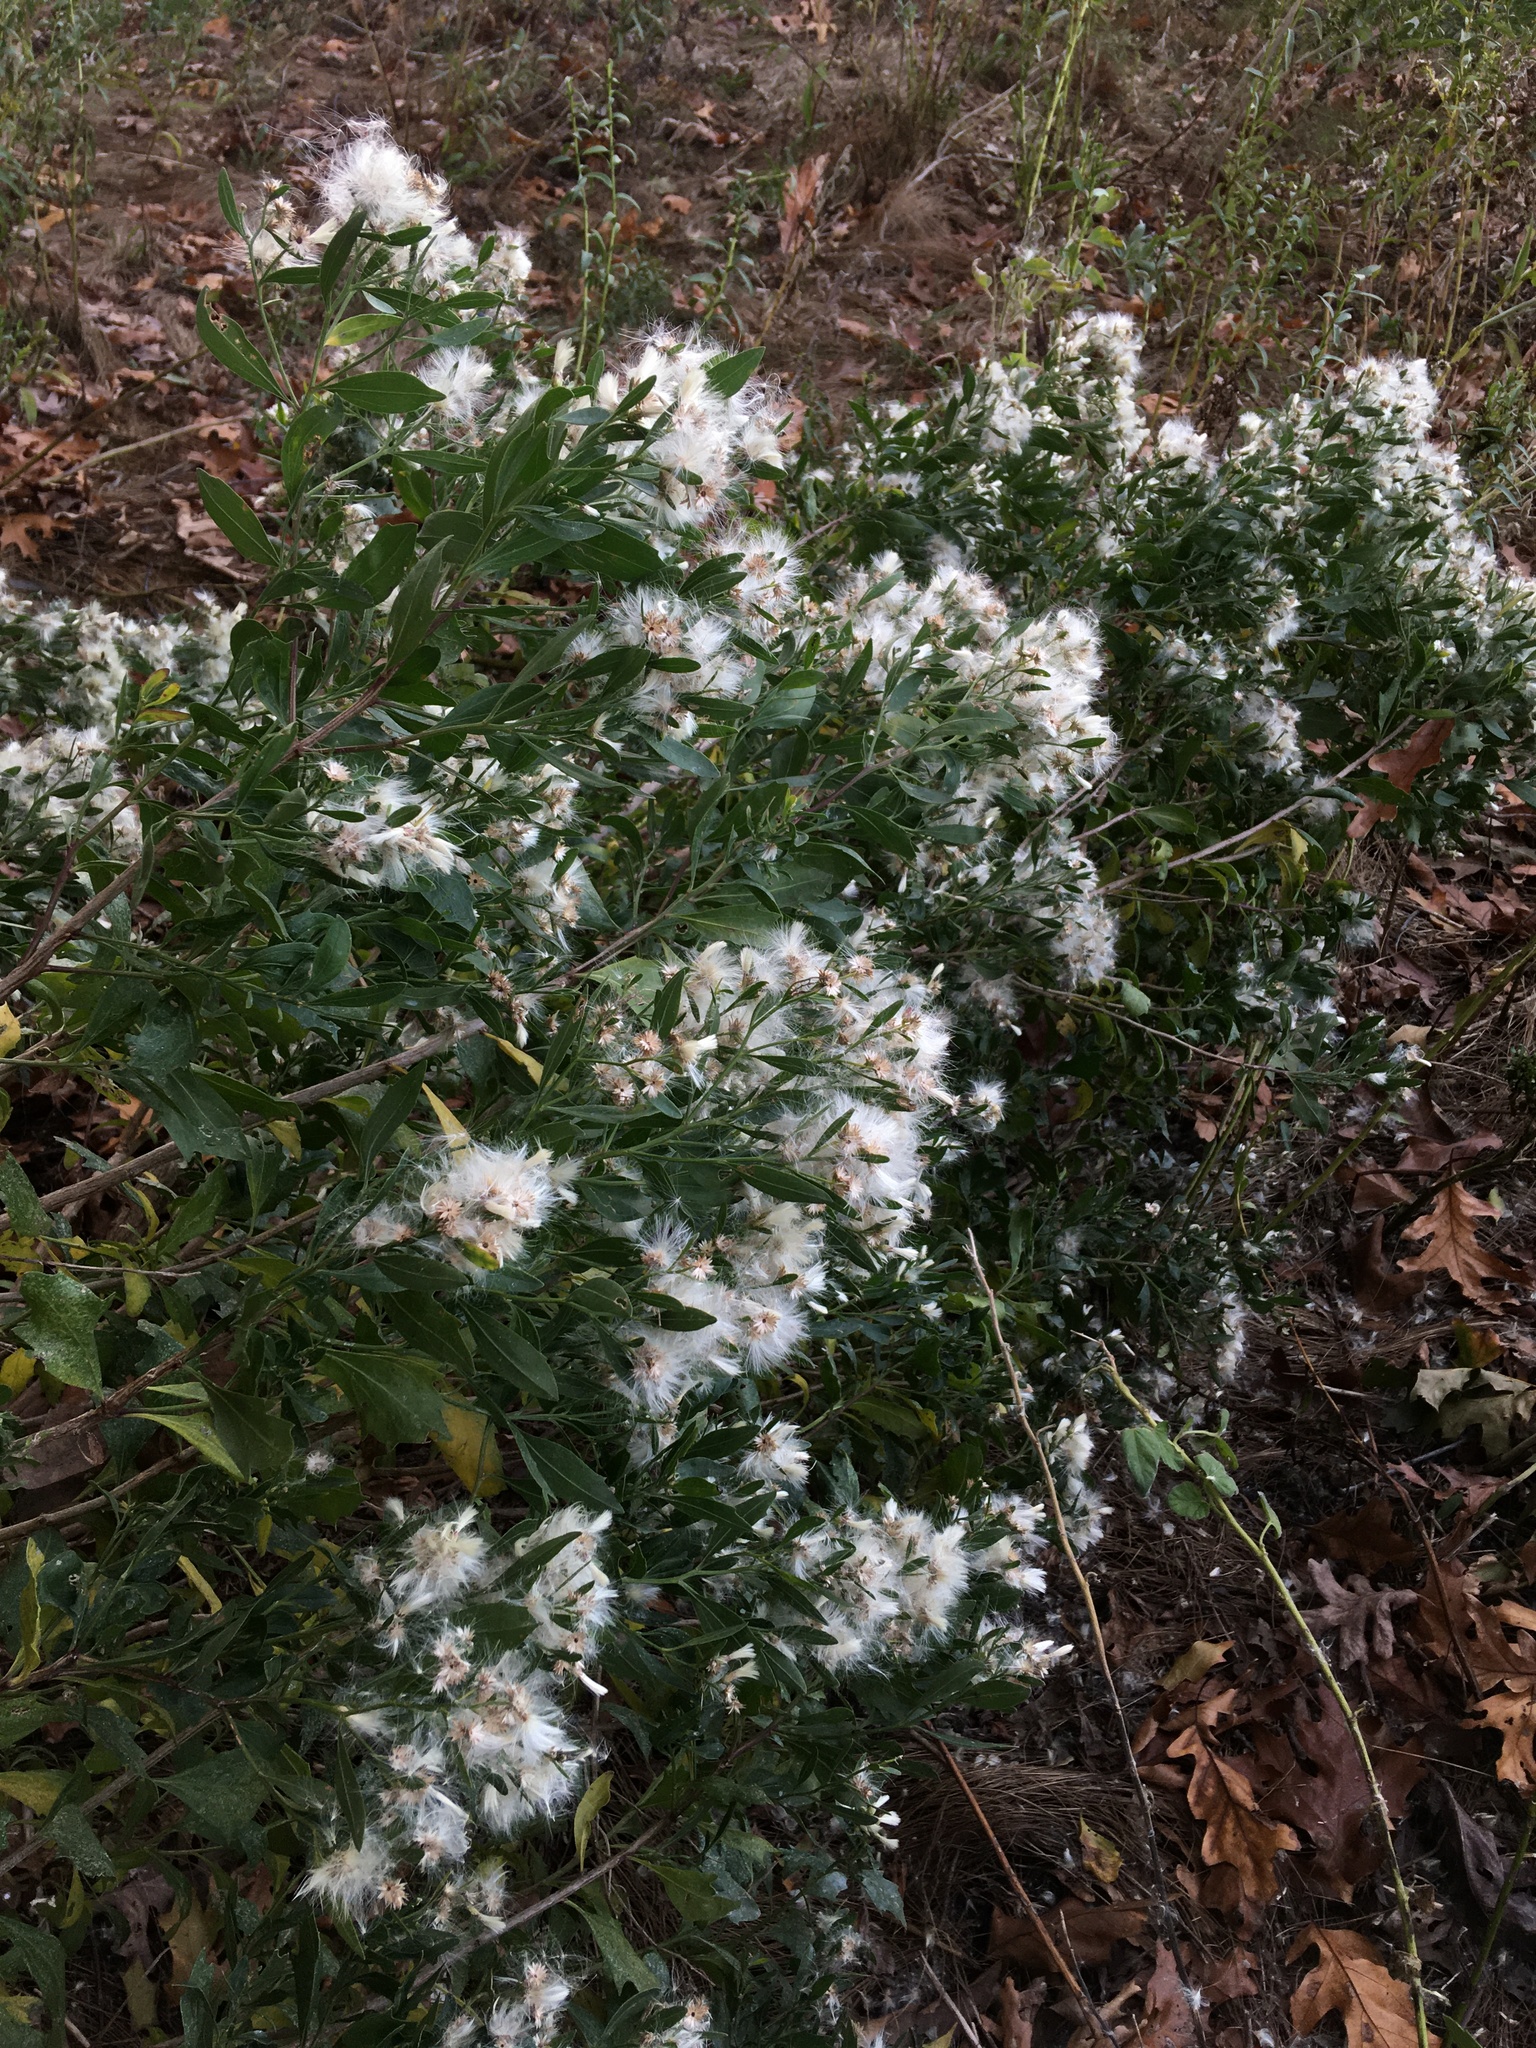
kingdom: Plantae
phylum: Tracheophyta
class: Magnoliopsida
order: Asterales
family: Asteraceae
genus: Baccharis
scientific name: Baccharis halimifolia
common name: Eastern baccharis
